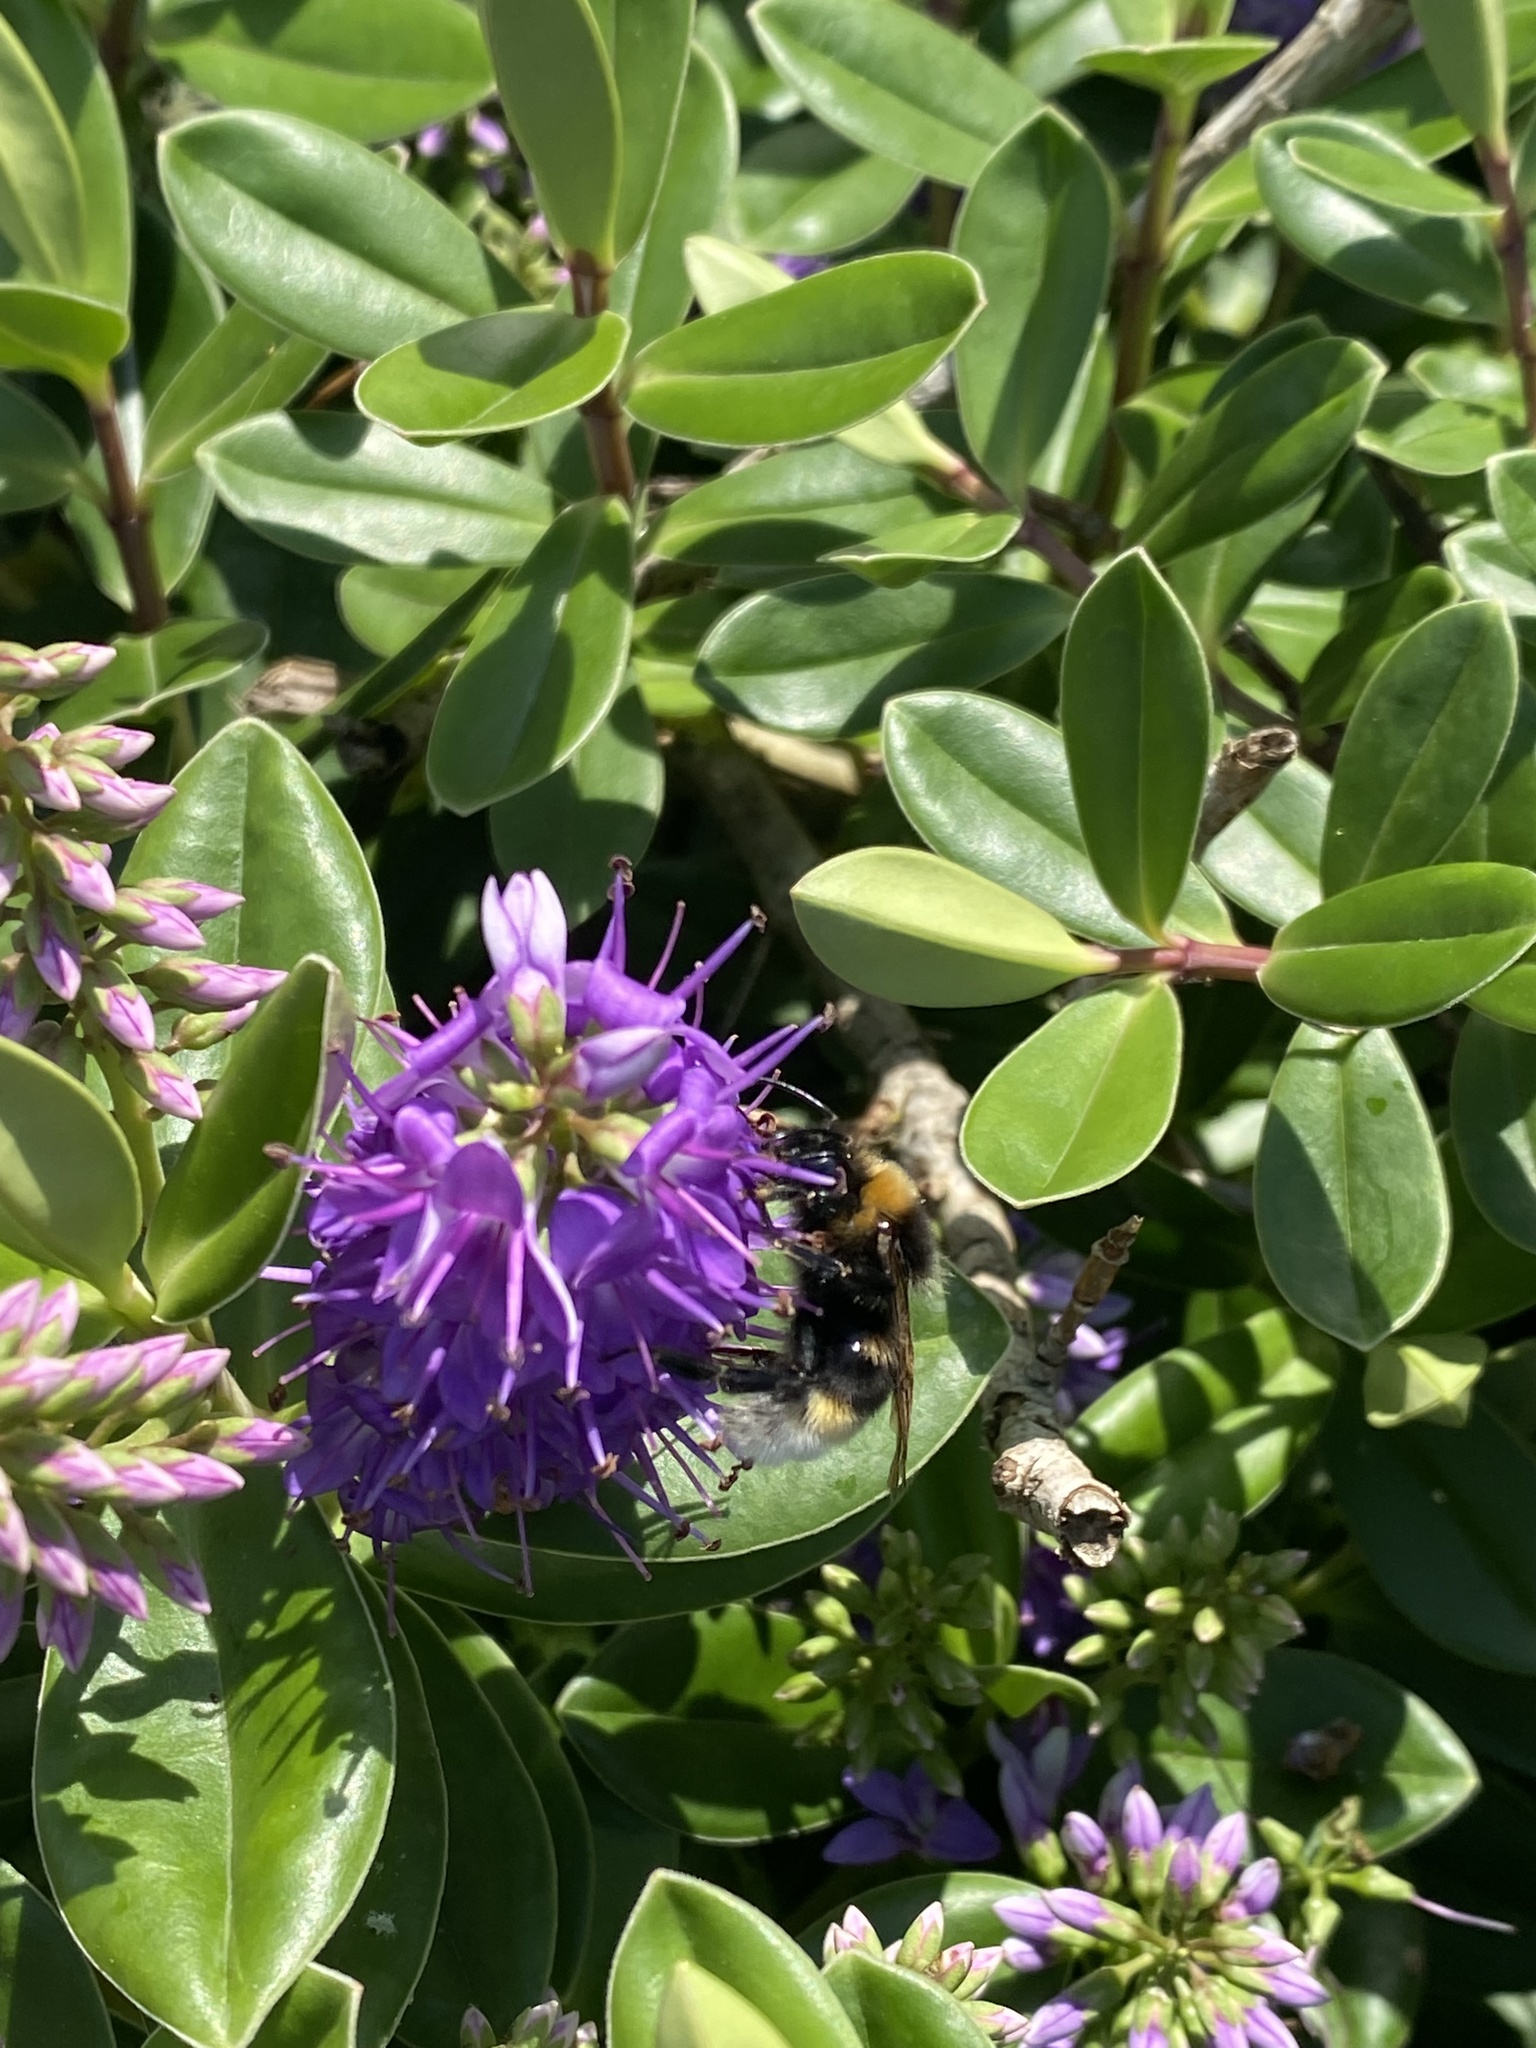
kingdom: Animalia
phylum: Arthropoda
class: Insecta
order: Hymenoptera
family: Apidae
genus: Bombus
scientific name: Bombus vestalis
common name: Vestal cuckoo bee
